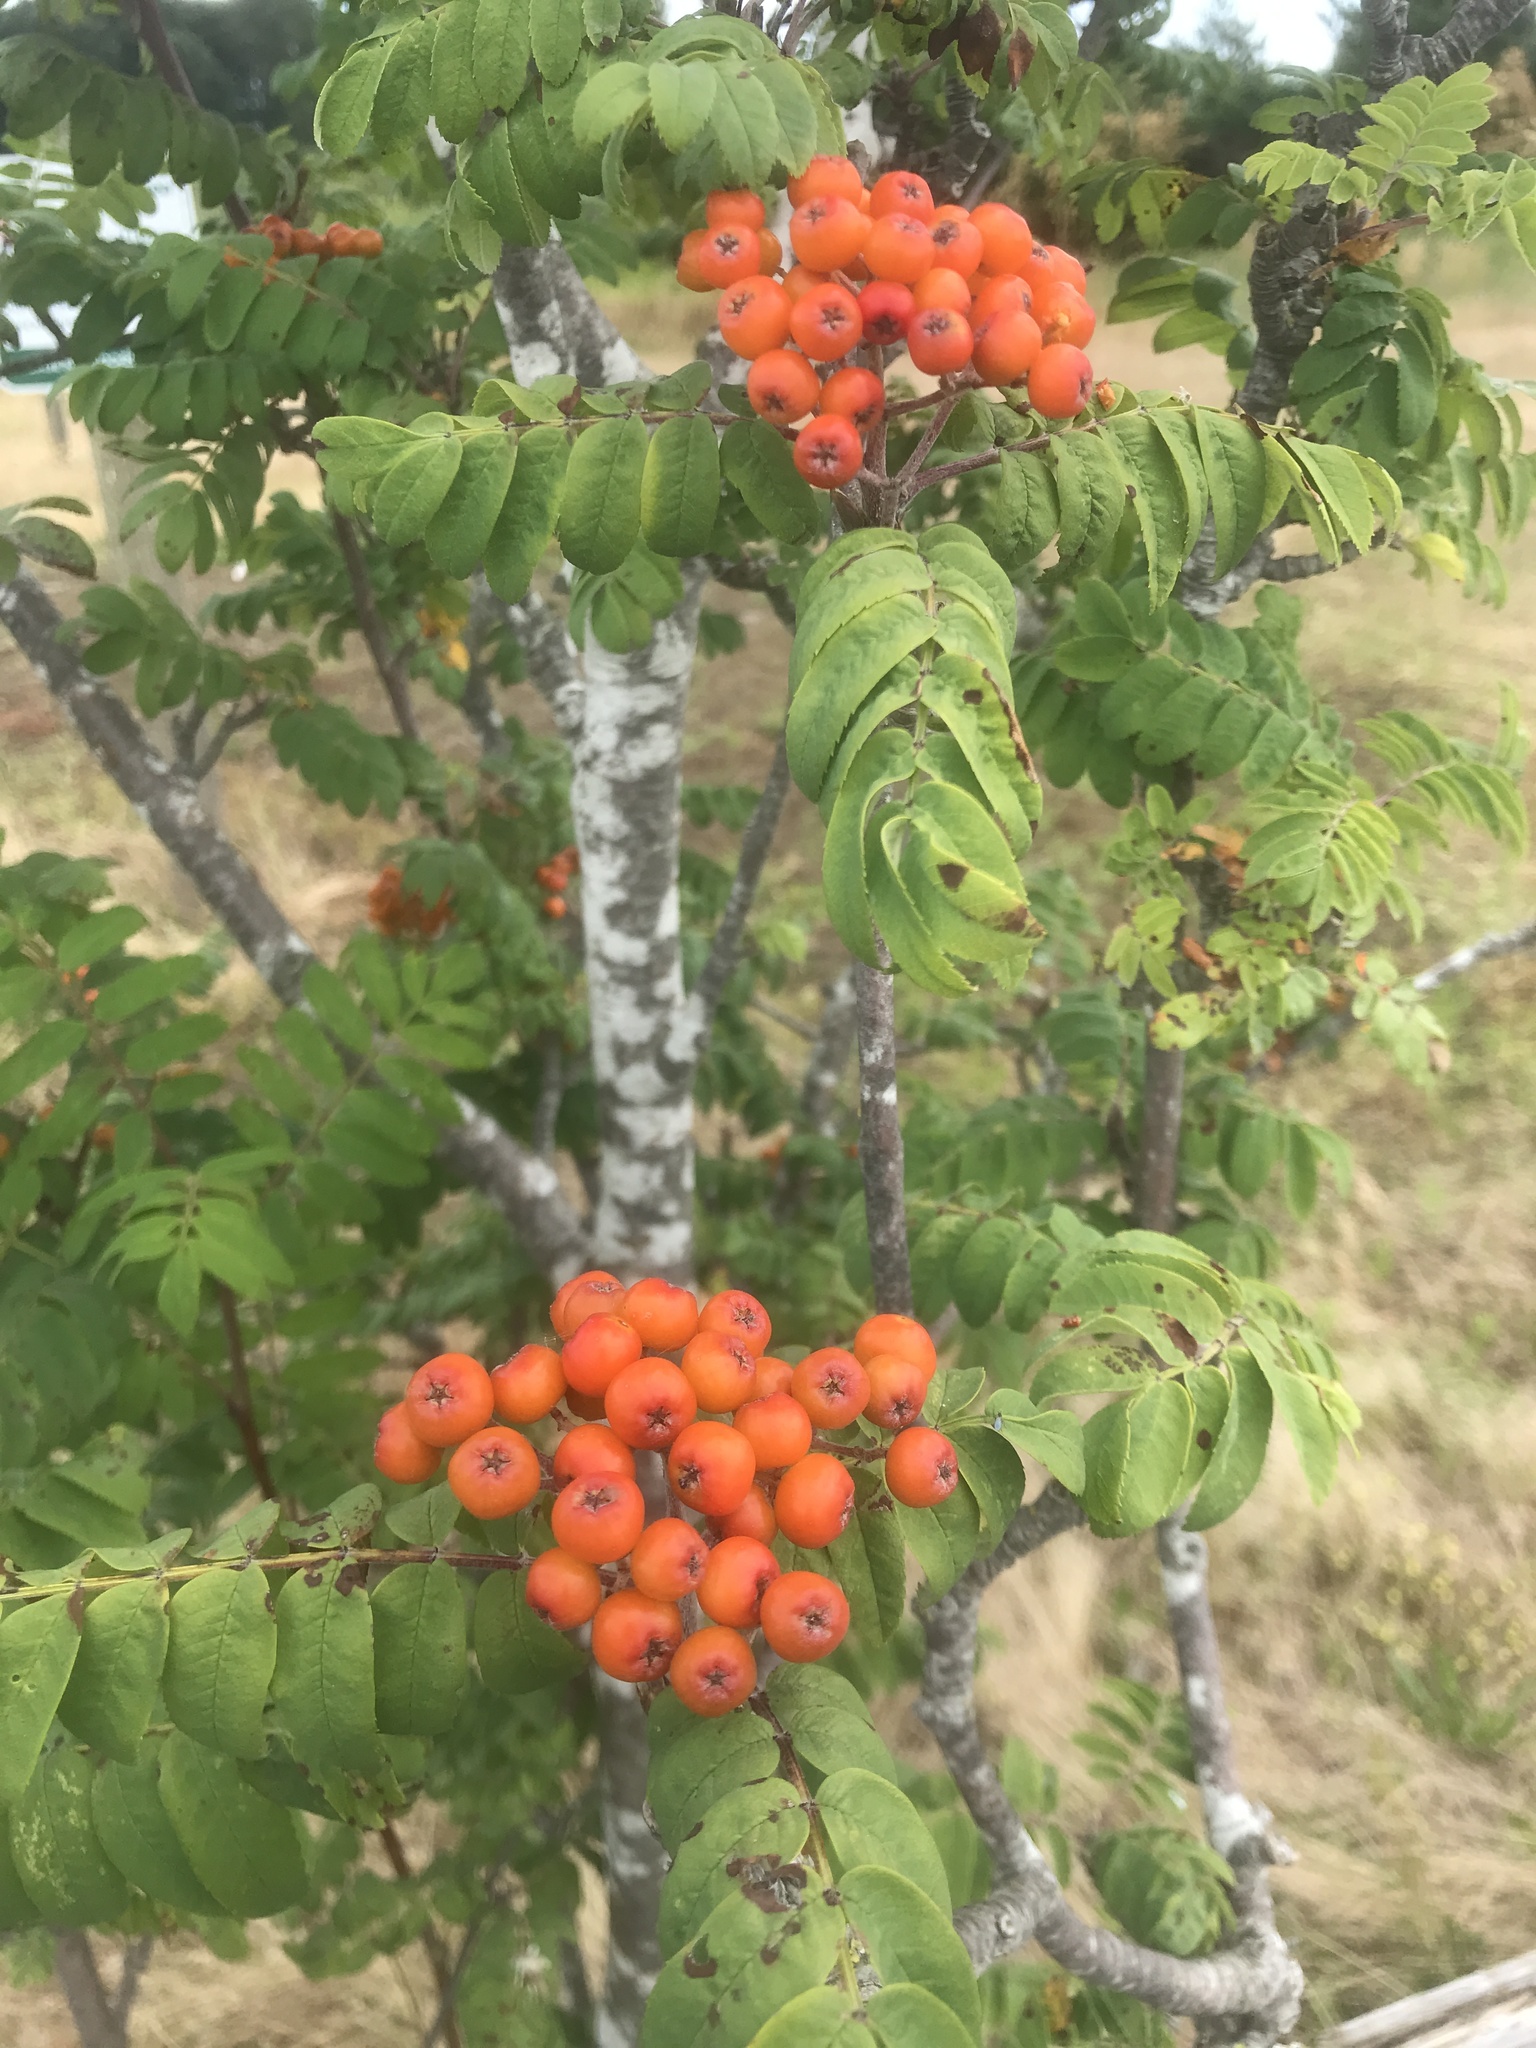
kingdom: Plantae
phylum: Tracheophyta
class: Magnoliopsida
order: Rosales
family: Rosaceae
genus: Sorbus
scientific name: Sorbus aucuparia
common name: Rowan
